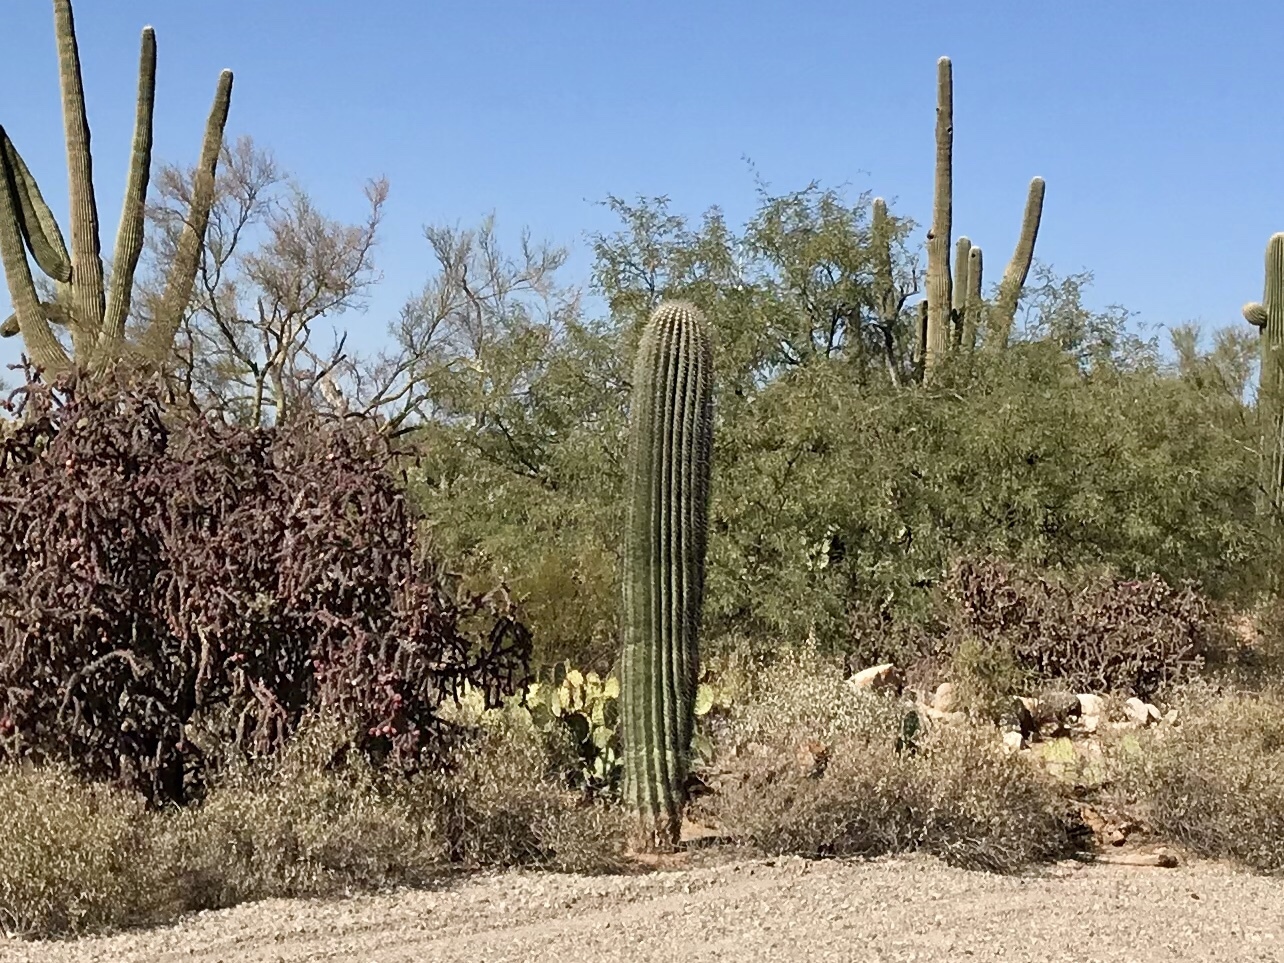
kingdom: Plantae
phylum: Tracheophyta
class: Magnoliopsida
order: Caryophyllales
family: Cactaceae
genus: Carnegiea
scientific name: Carnegiea gigantea
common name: Saguaro
